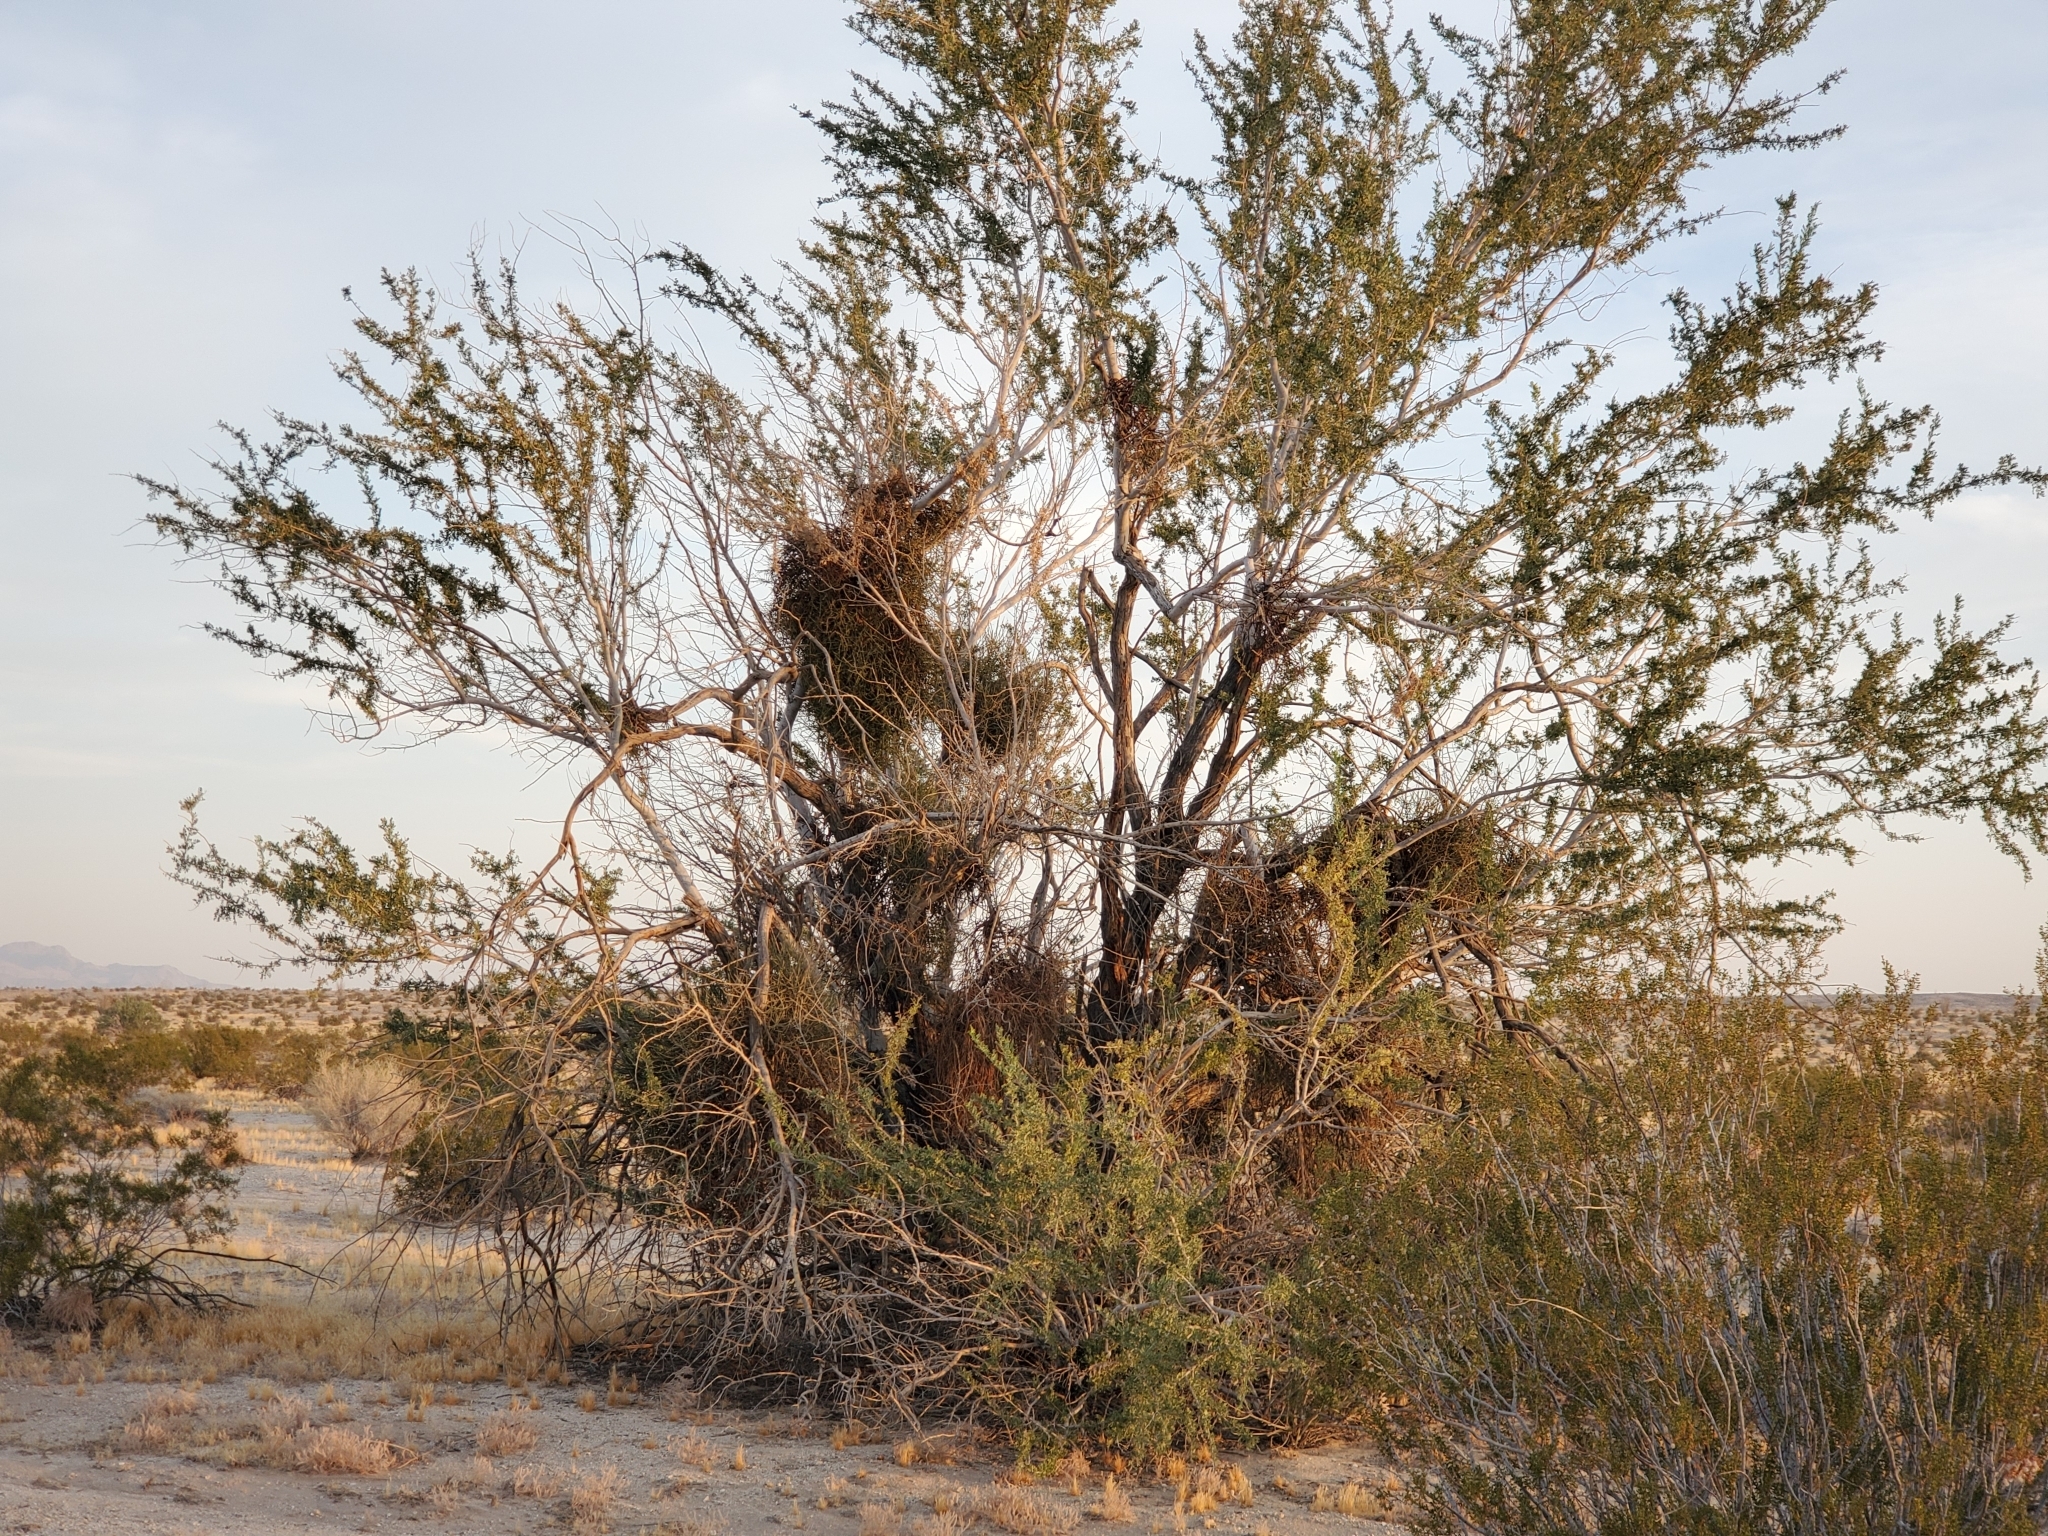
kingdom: Plantae
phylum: Tracheophyta
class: Magnoliopsida
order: Santalales
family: Viscaceae
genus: Phoradendron
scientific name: Phoradendron californicum
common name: Acacia mistletoe
